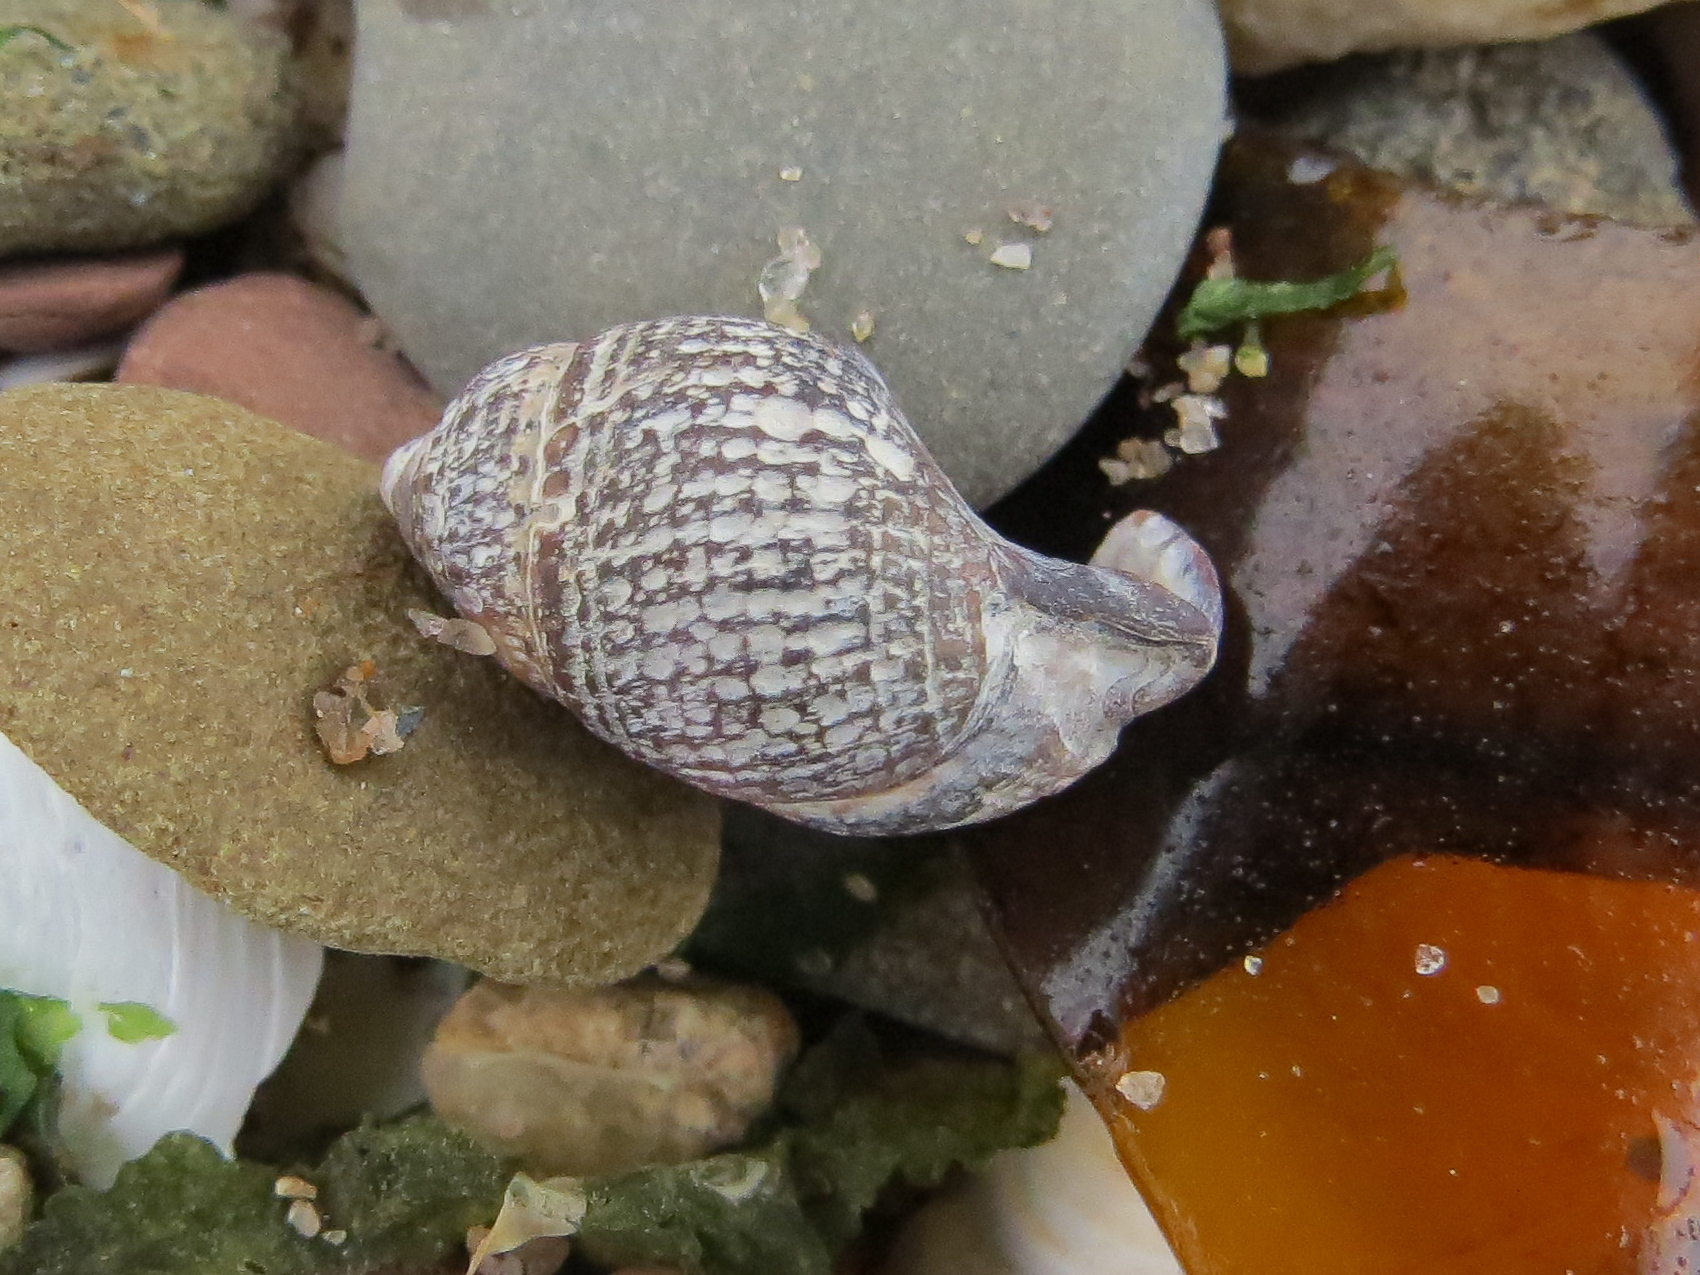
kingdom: Animalia
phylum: Mollusca
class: Gastropoda
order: Neogastropoda
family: Nassariidae
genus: Ilyanassa
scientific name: Ilyanassa obsoleta
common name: Eastern mudsnail
